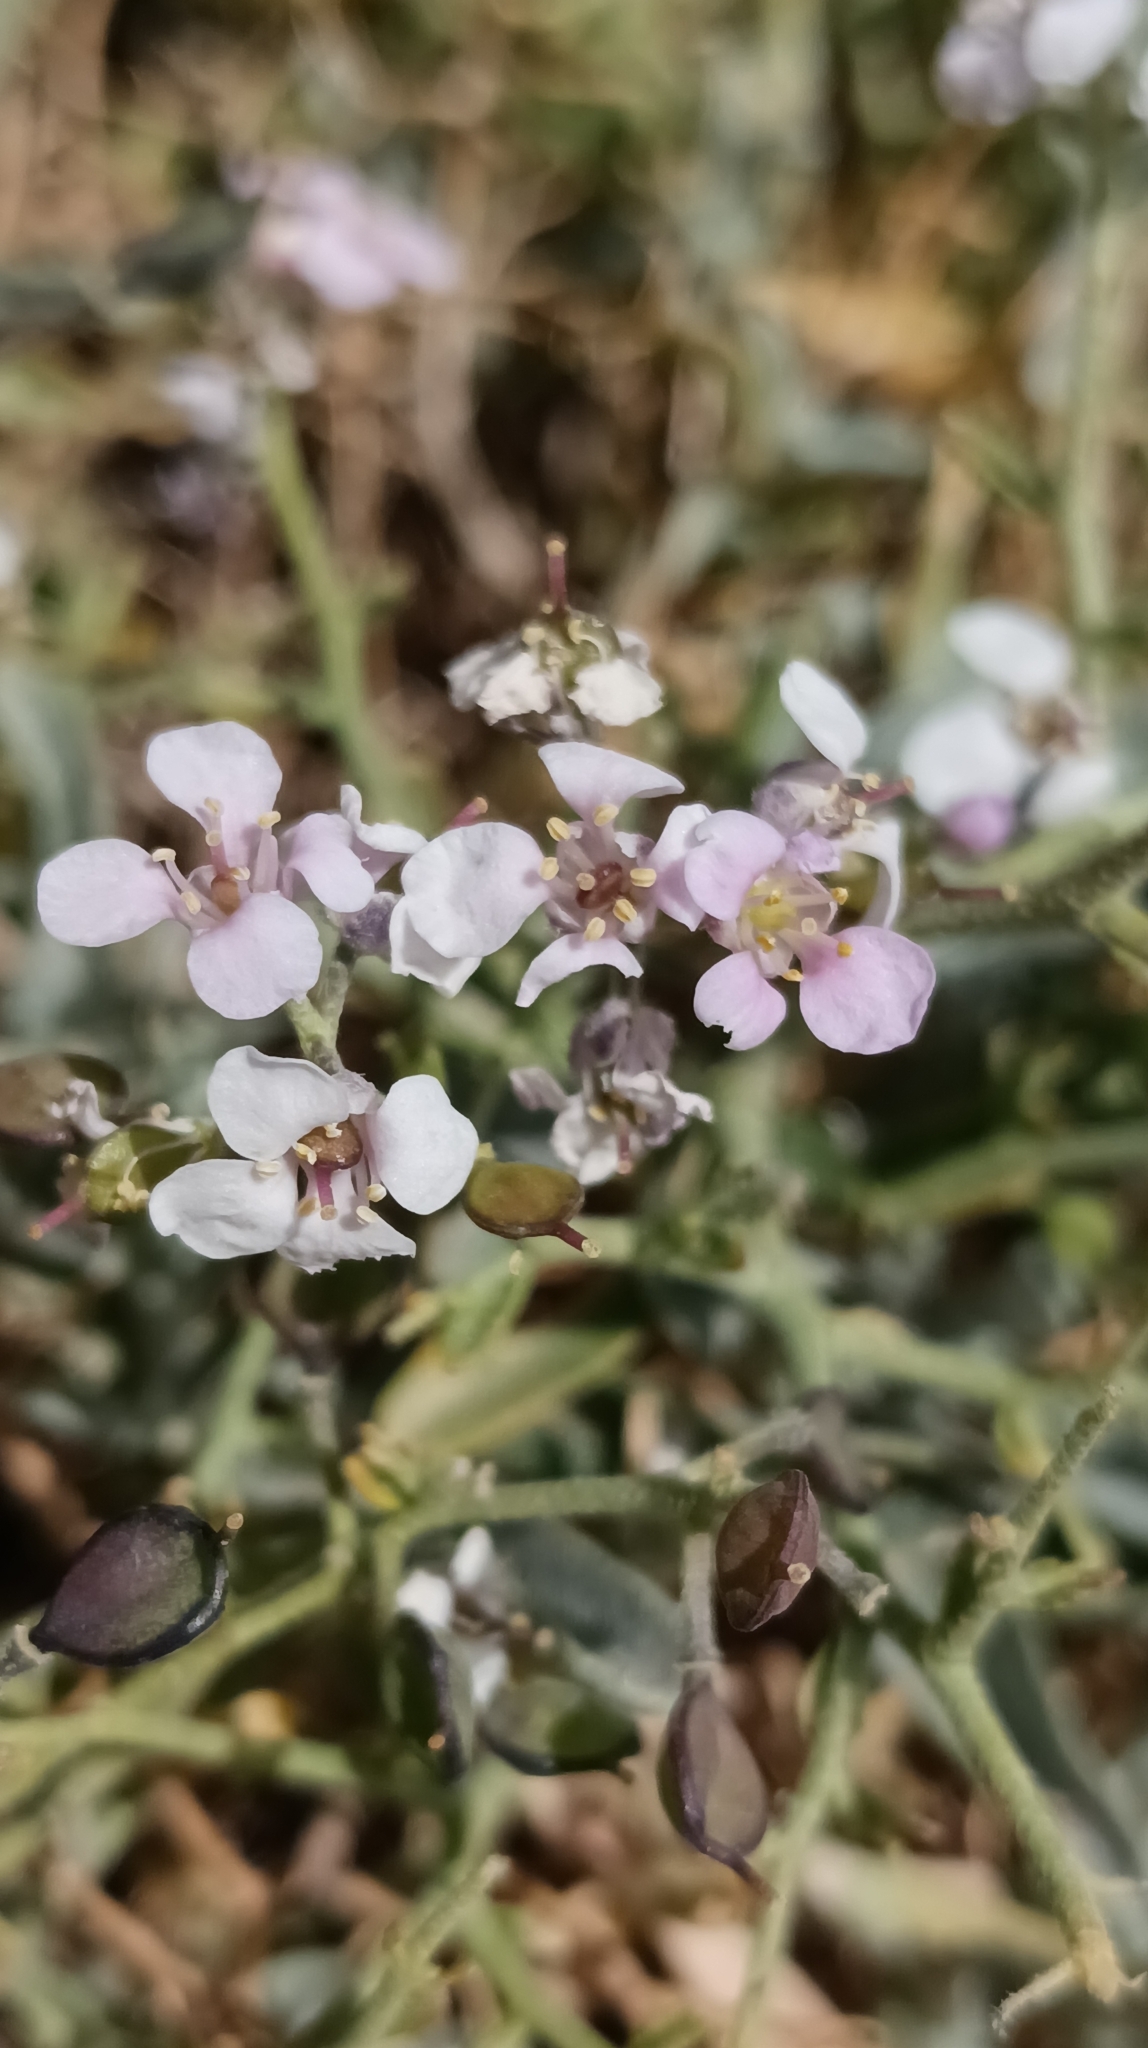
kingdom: Plantae
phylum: Tracheophyta
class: Magnoliopsida
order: Brassicales
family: Brassicaceae
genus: Hormathophylla
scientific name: Hormathophylla spinosa
